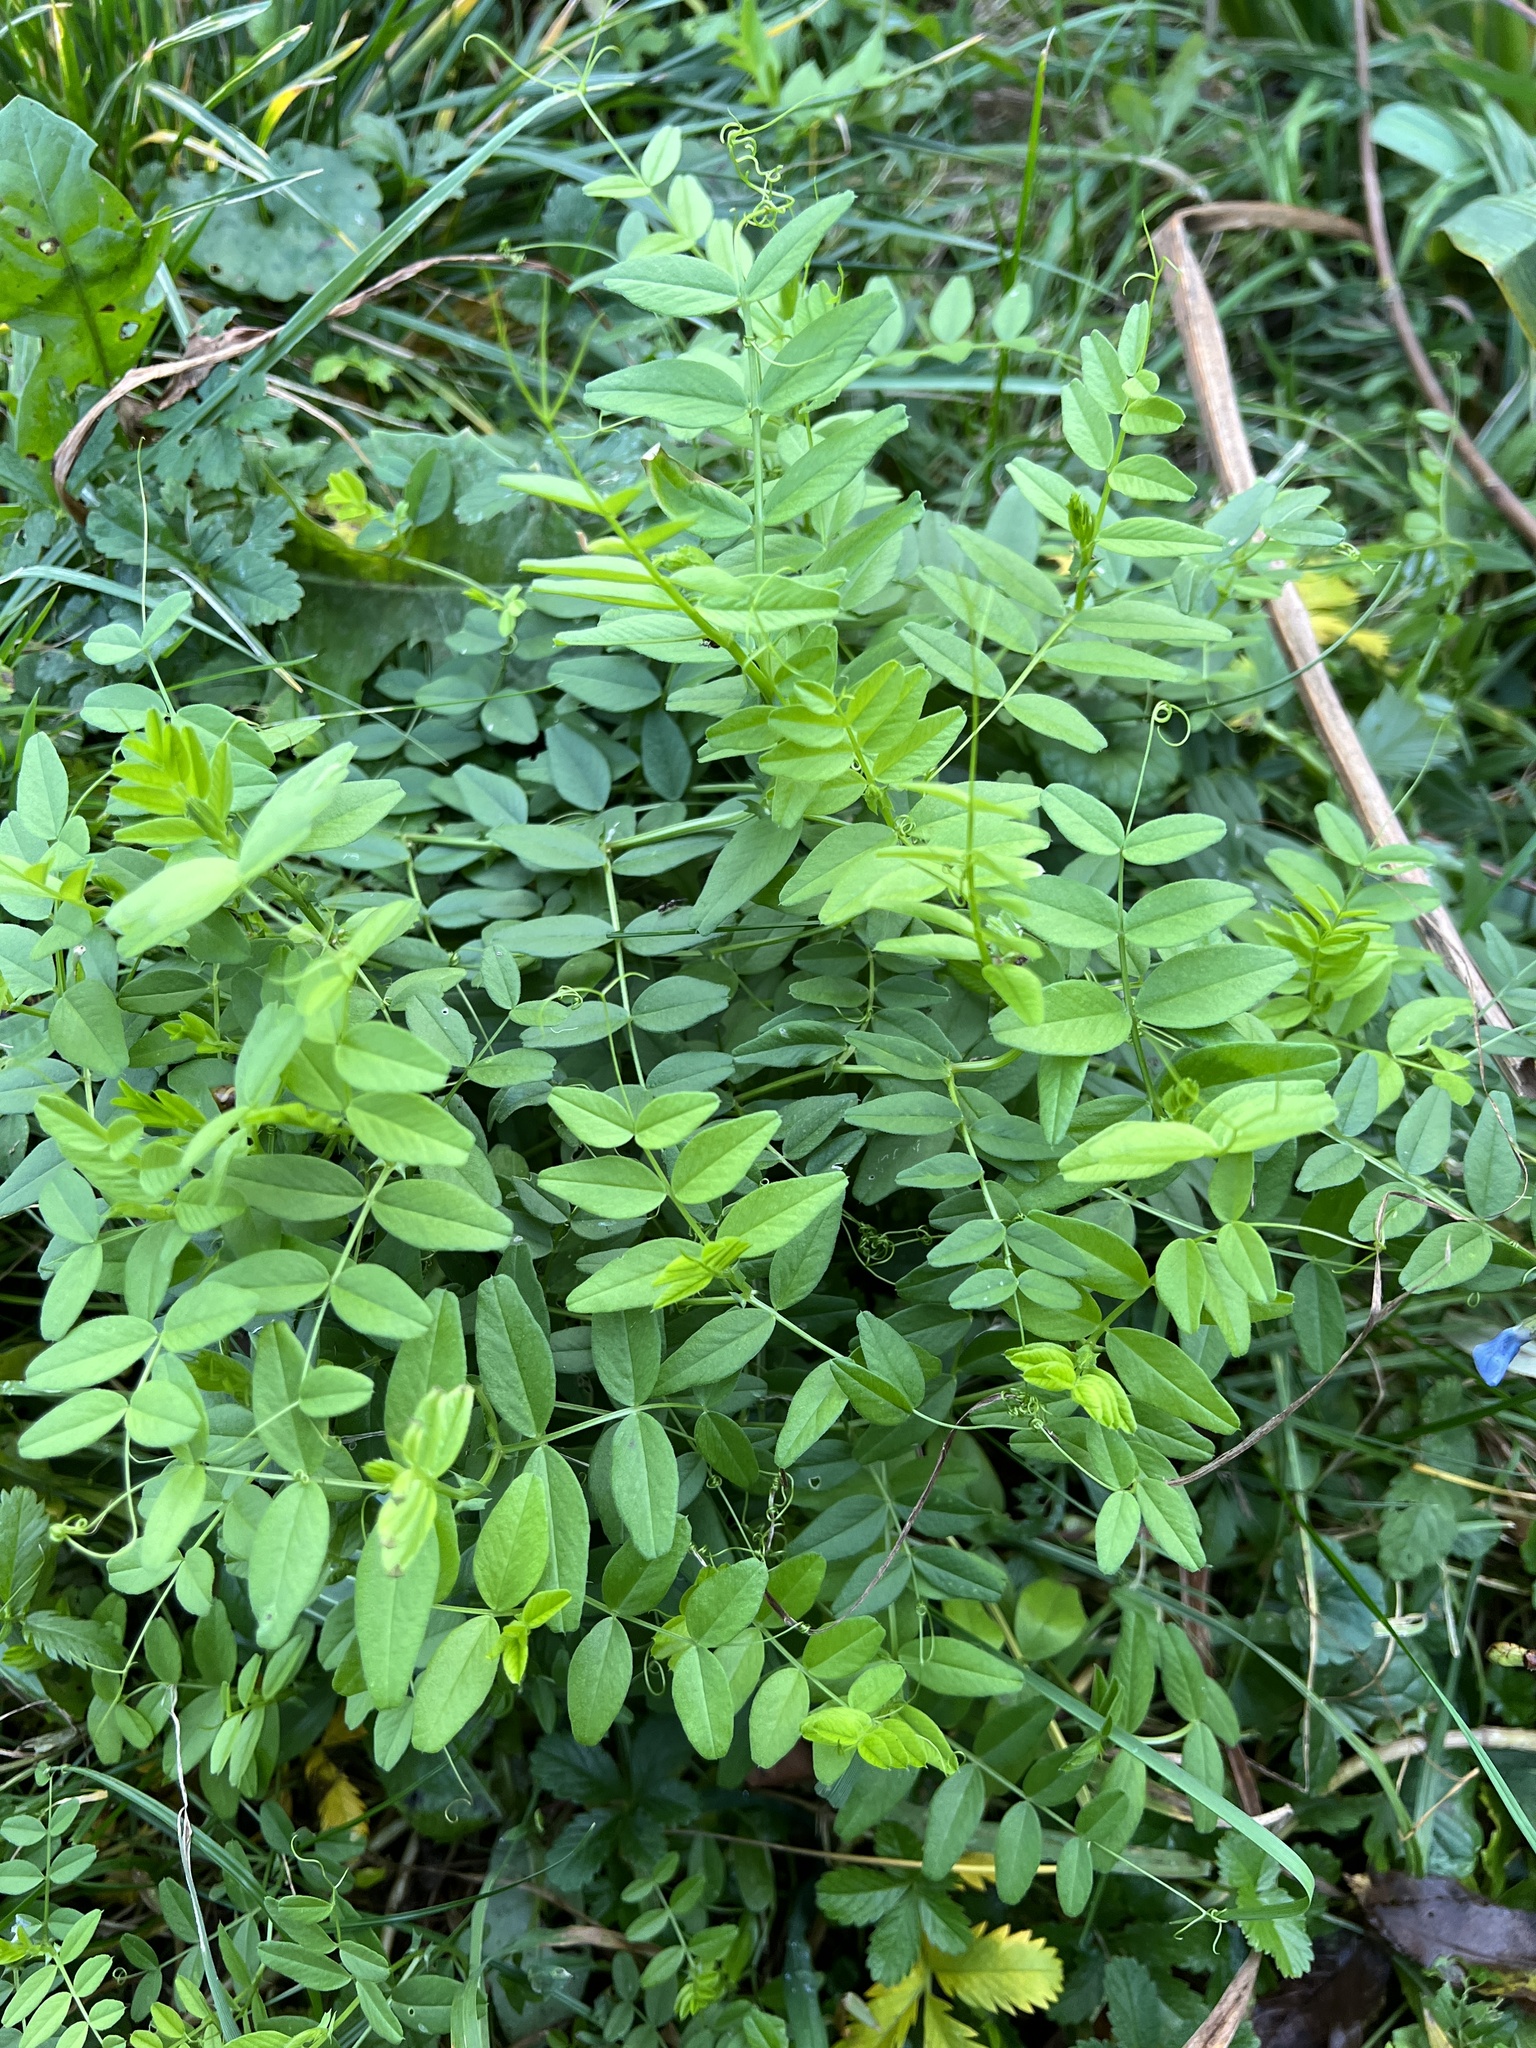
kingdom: Plantae
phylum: Tracheophyta
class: Magnoliopsida
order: Fabales
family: Fabaceae
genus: Vicia
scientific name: Vicia sepium
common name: Bush vetch
